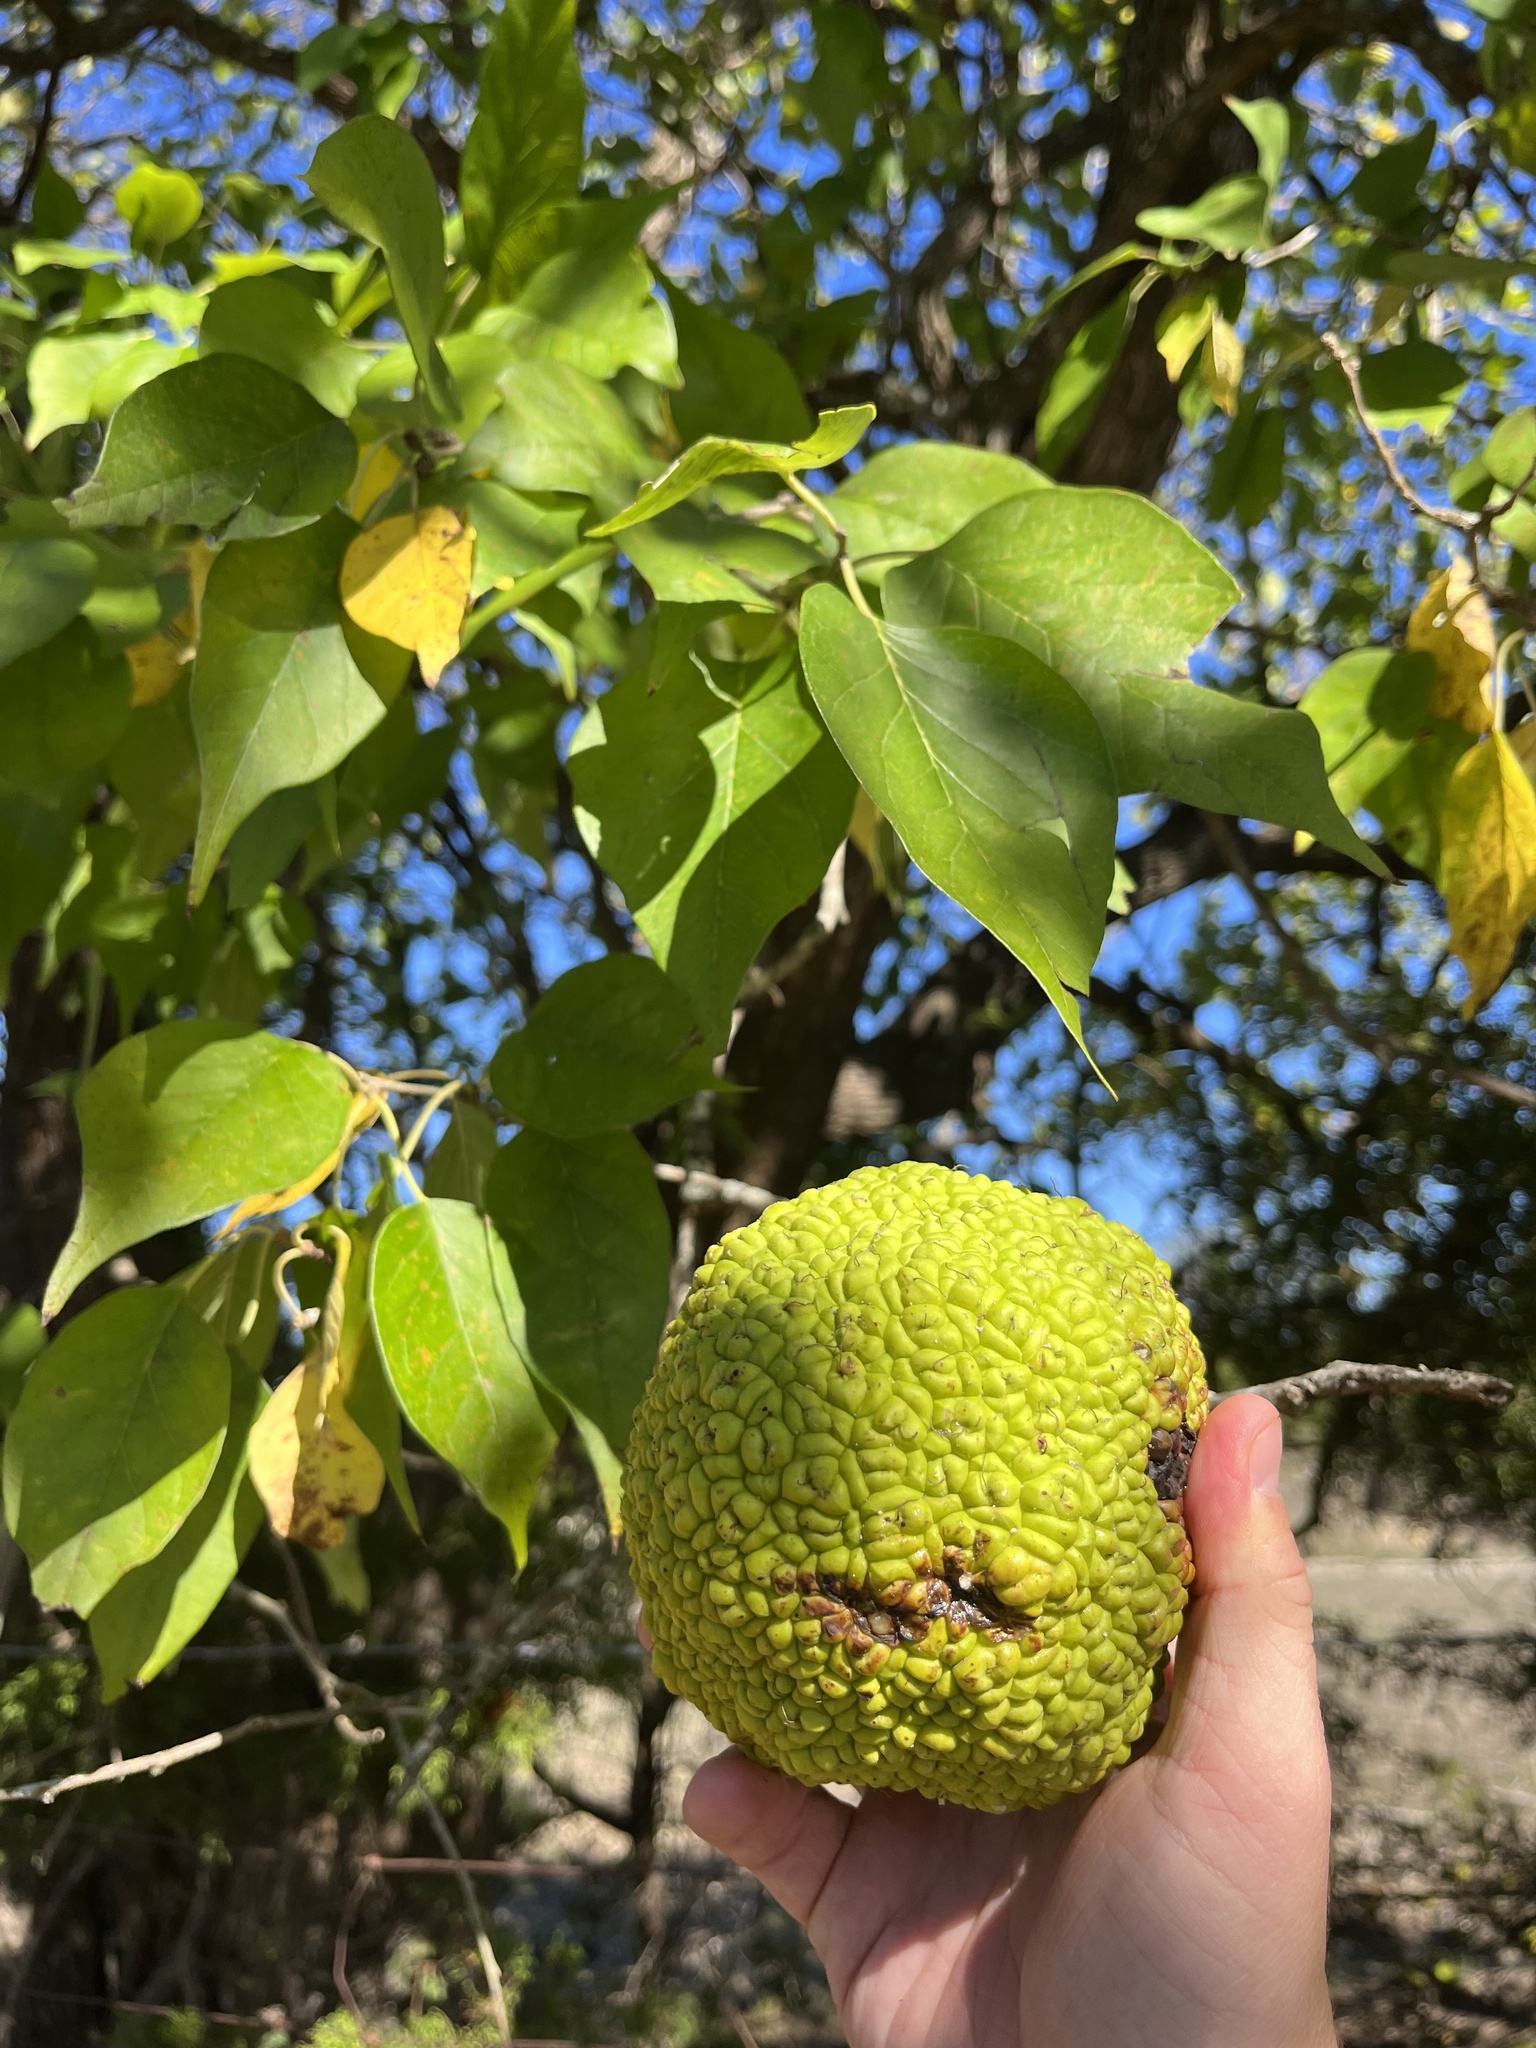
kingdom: Plantae
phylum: Tracheophyta
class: Magnoliopsida
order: Rosales
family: Moraceae
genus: Maclura
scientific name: Maclura pomifera
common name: Osage-orange
